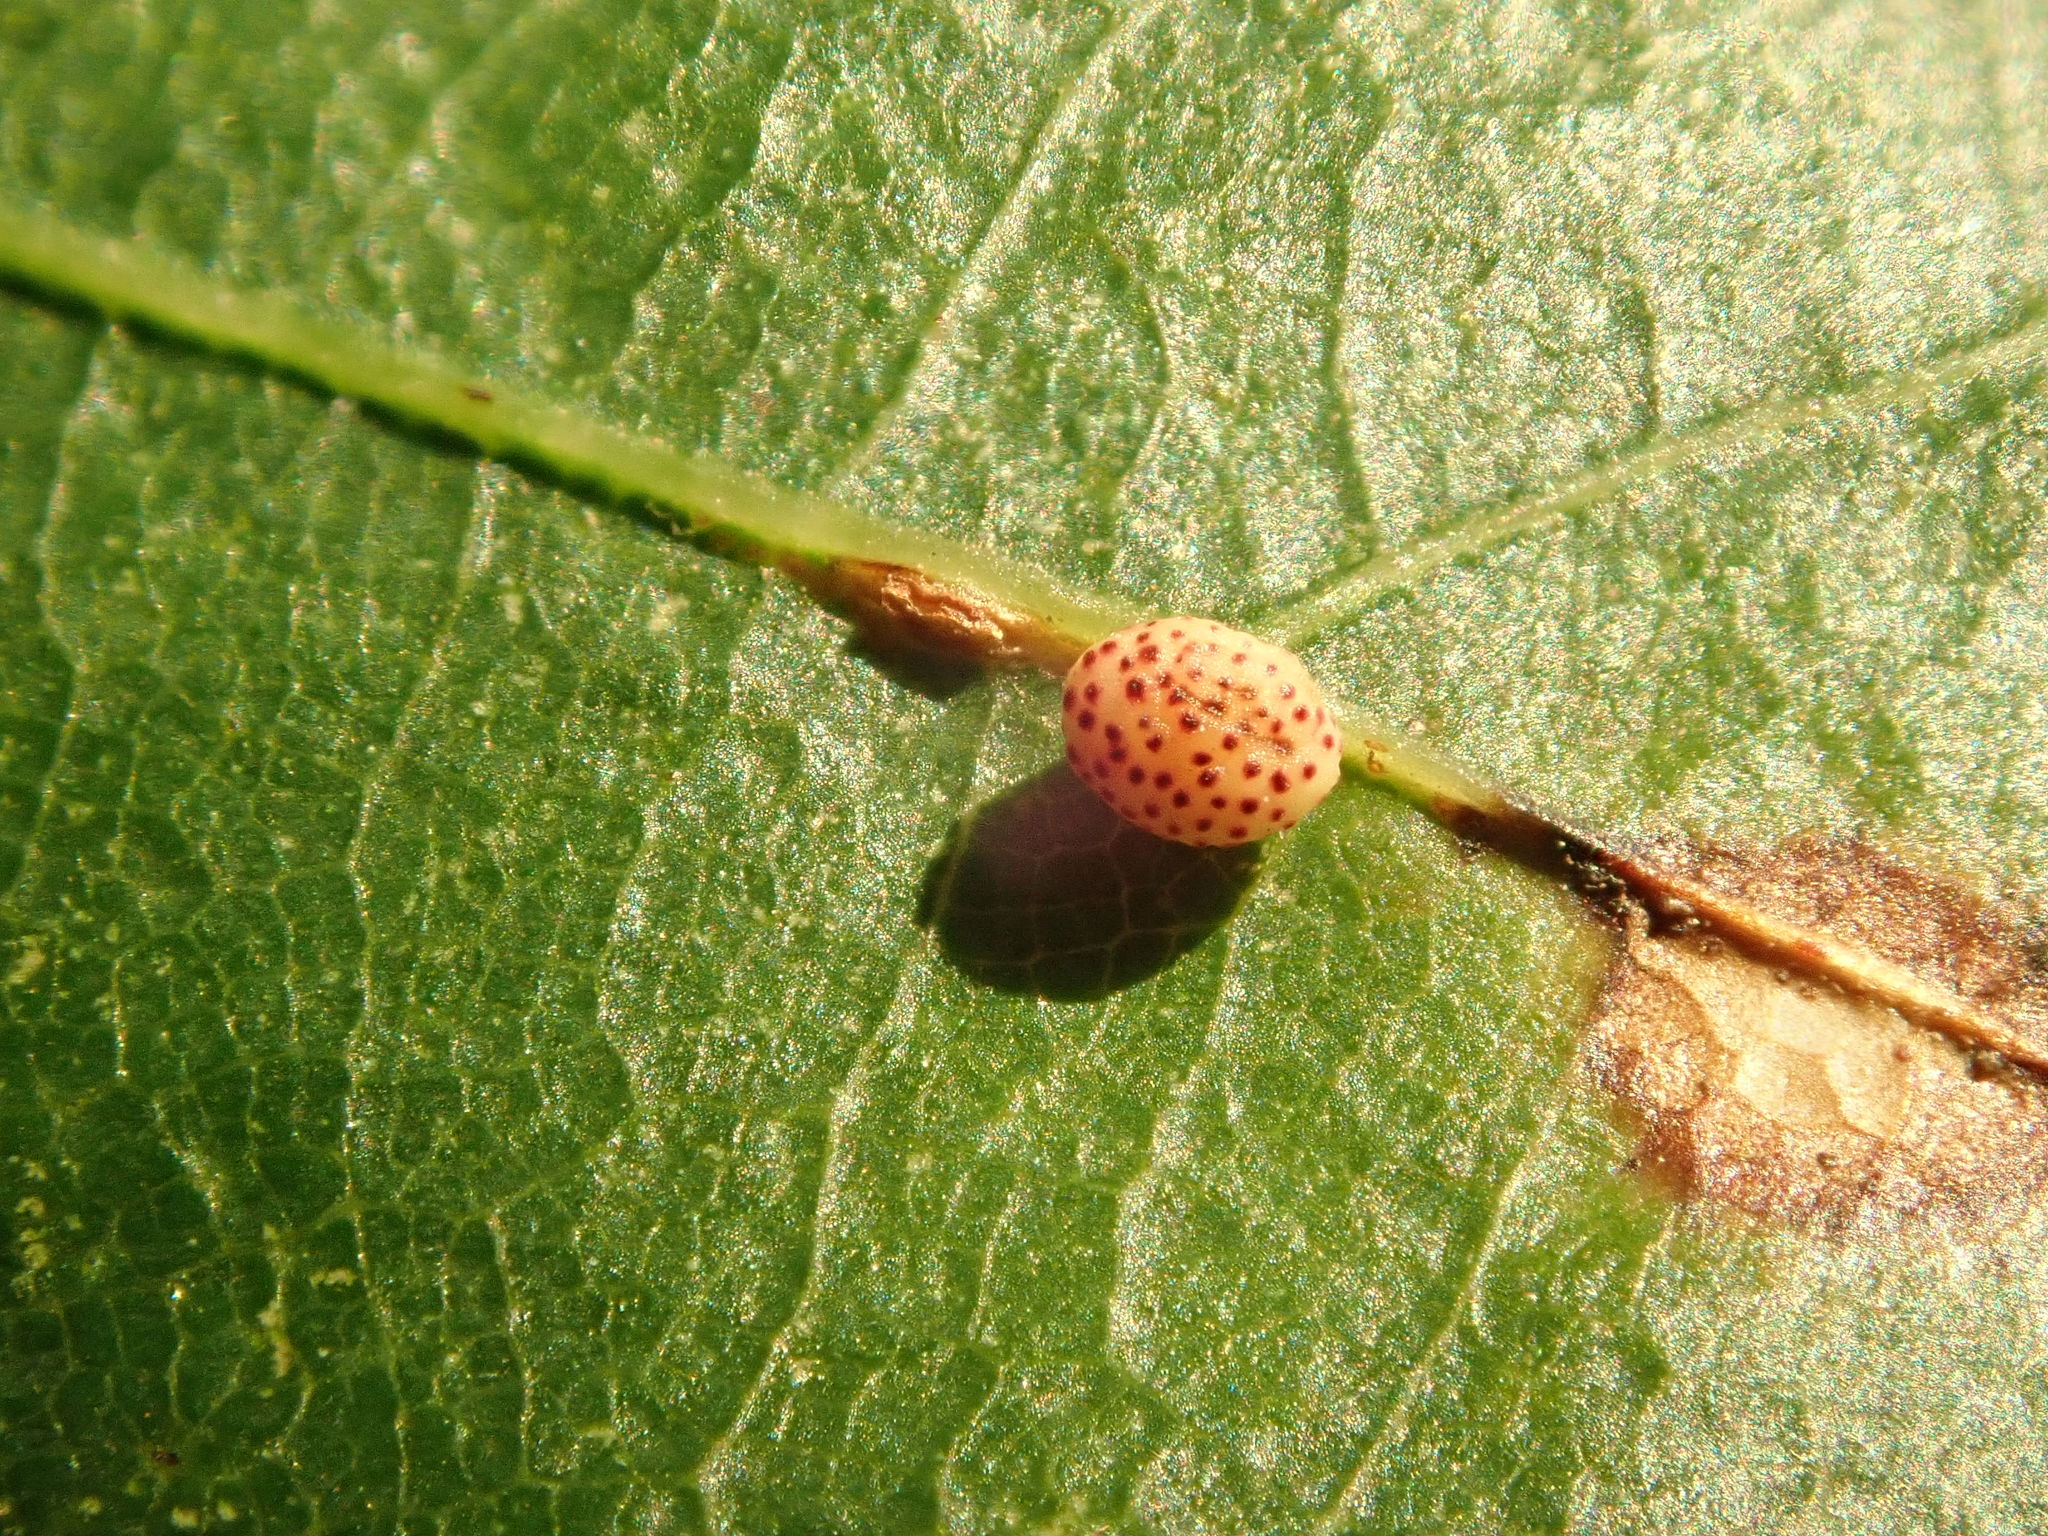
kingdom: Animalia
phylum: Arthropoda
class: Insecta
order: Hymenoptera
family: Cynipidae
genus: Zopheroteras
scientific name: Zopheroteras
